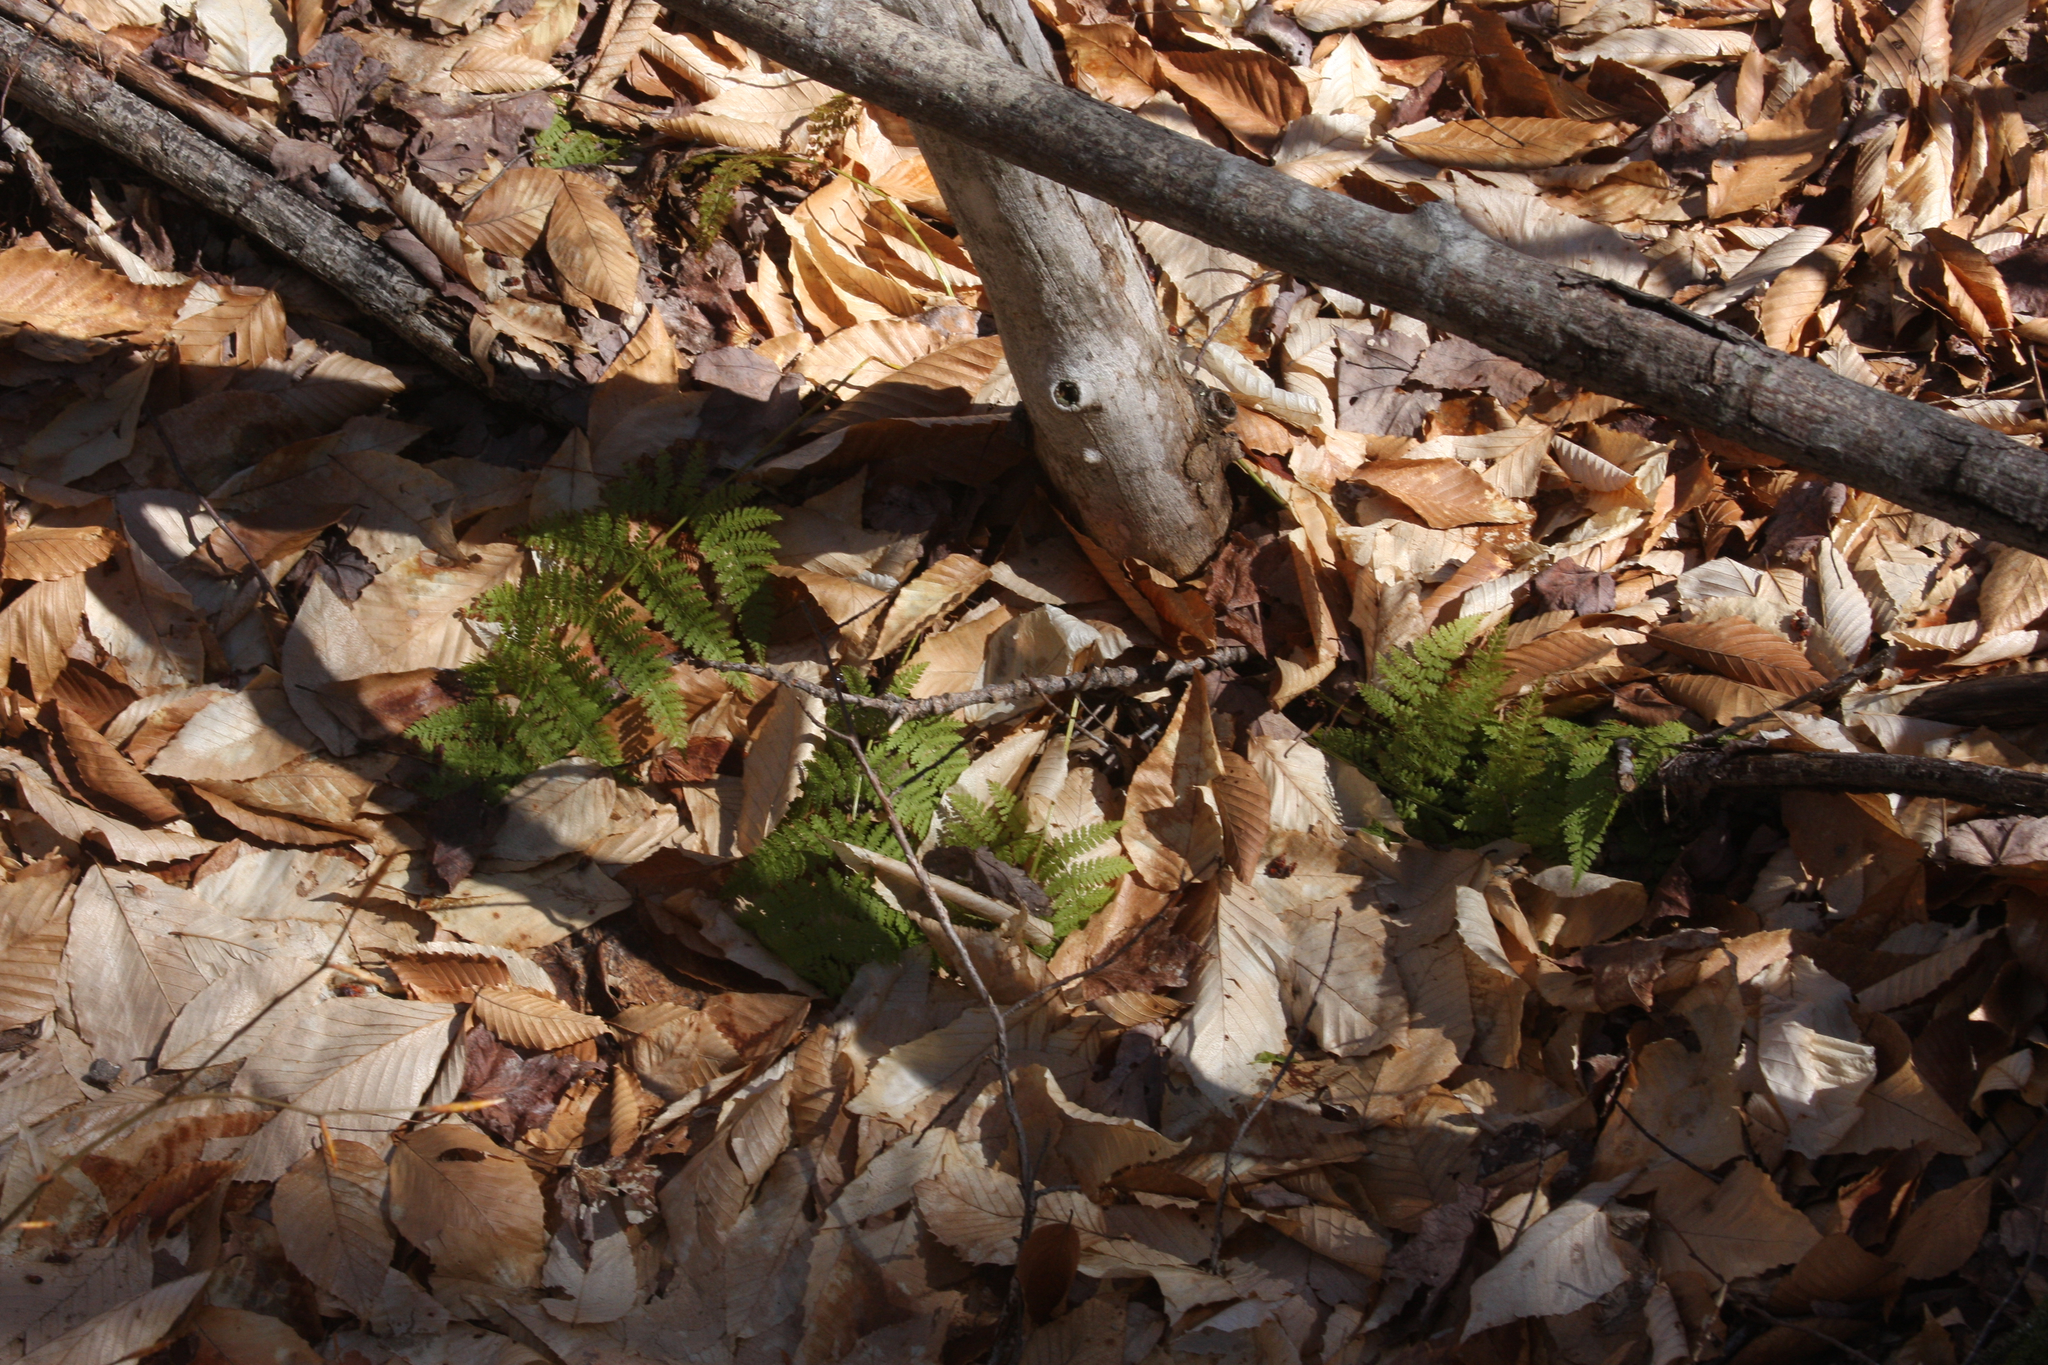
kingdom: Plantae
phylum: Tracheophyta
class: Polypodiopsida
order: Polypodiales
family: Dryopteridaceae
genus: Dryopteris
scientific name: Dryopteris intermedia
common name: Evergreen wood fern
